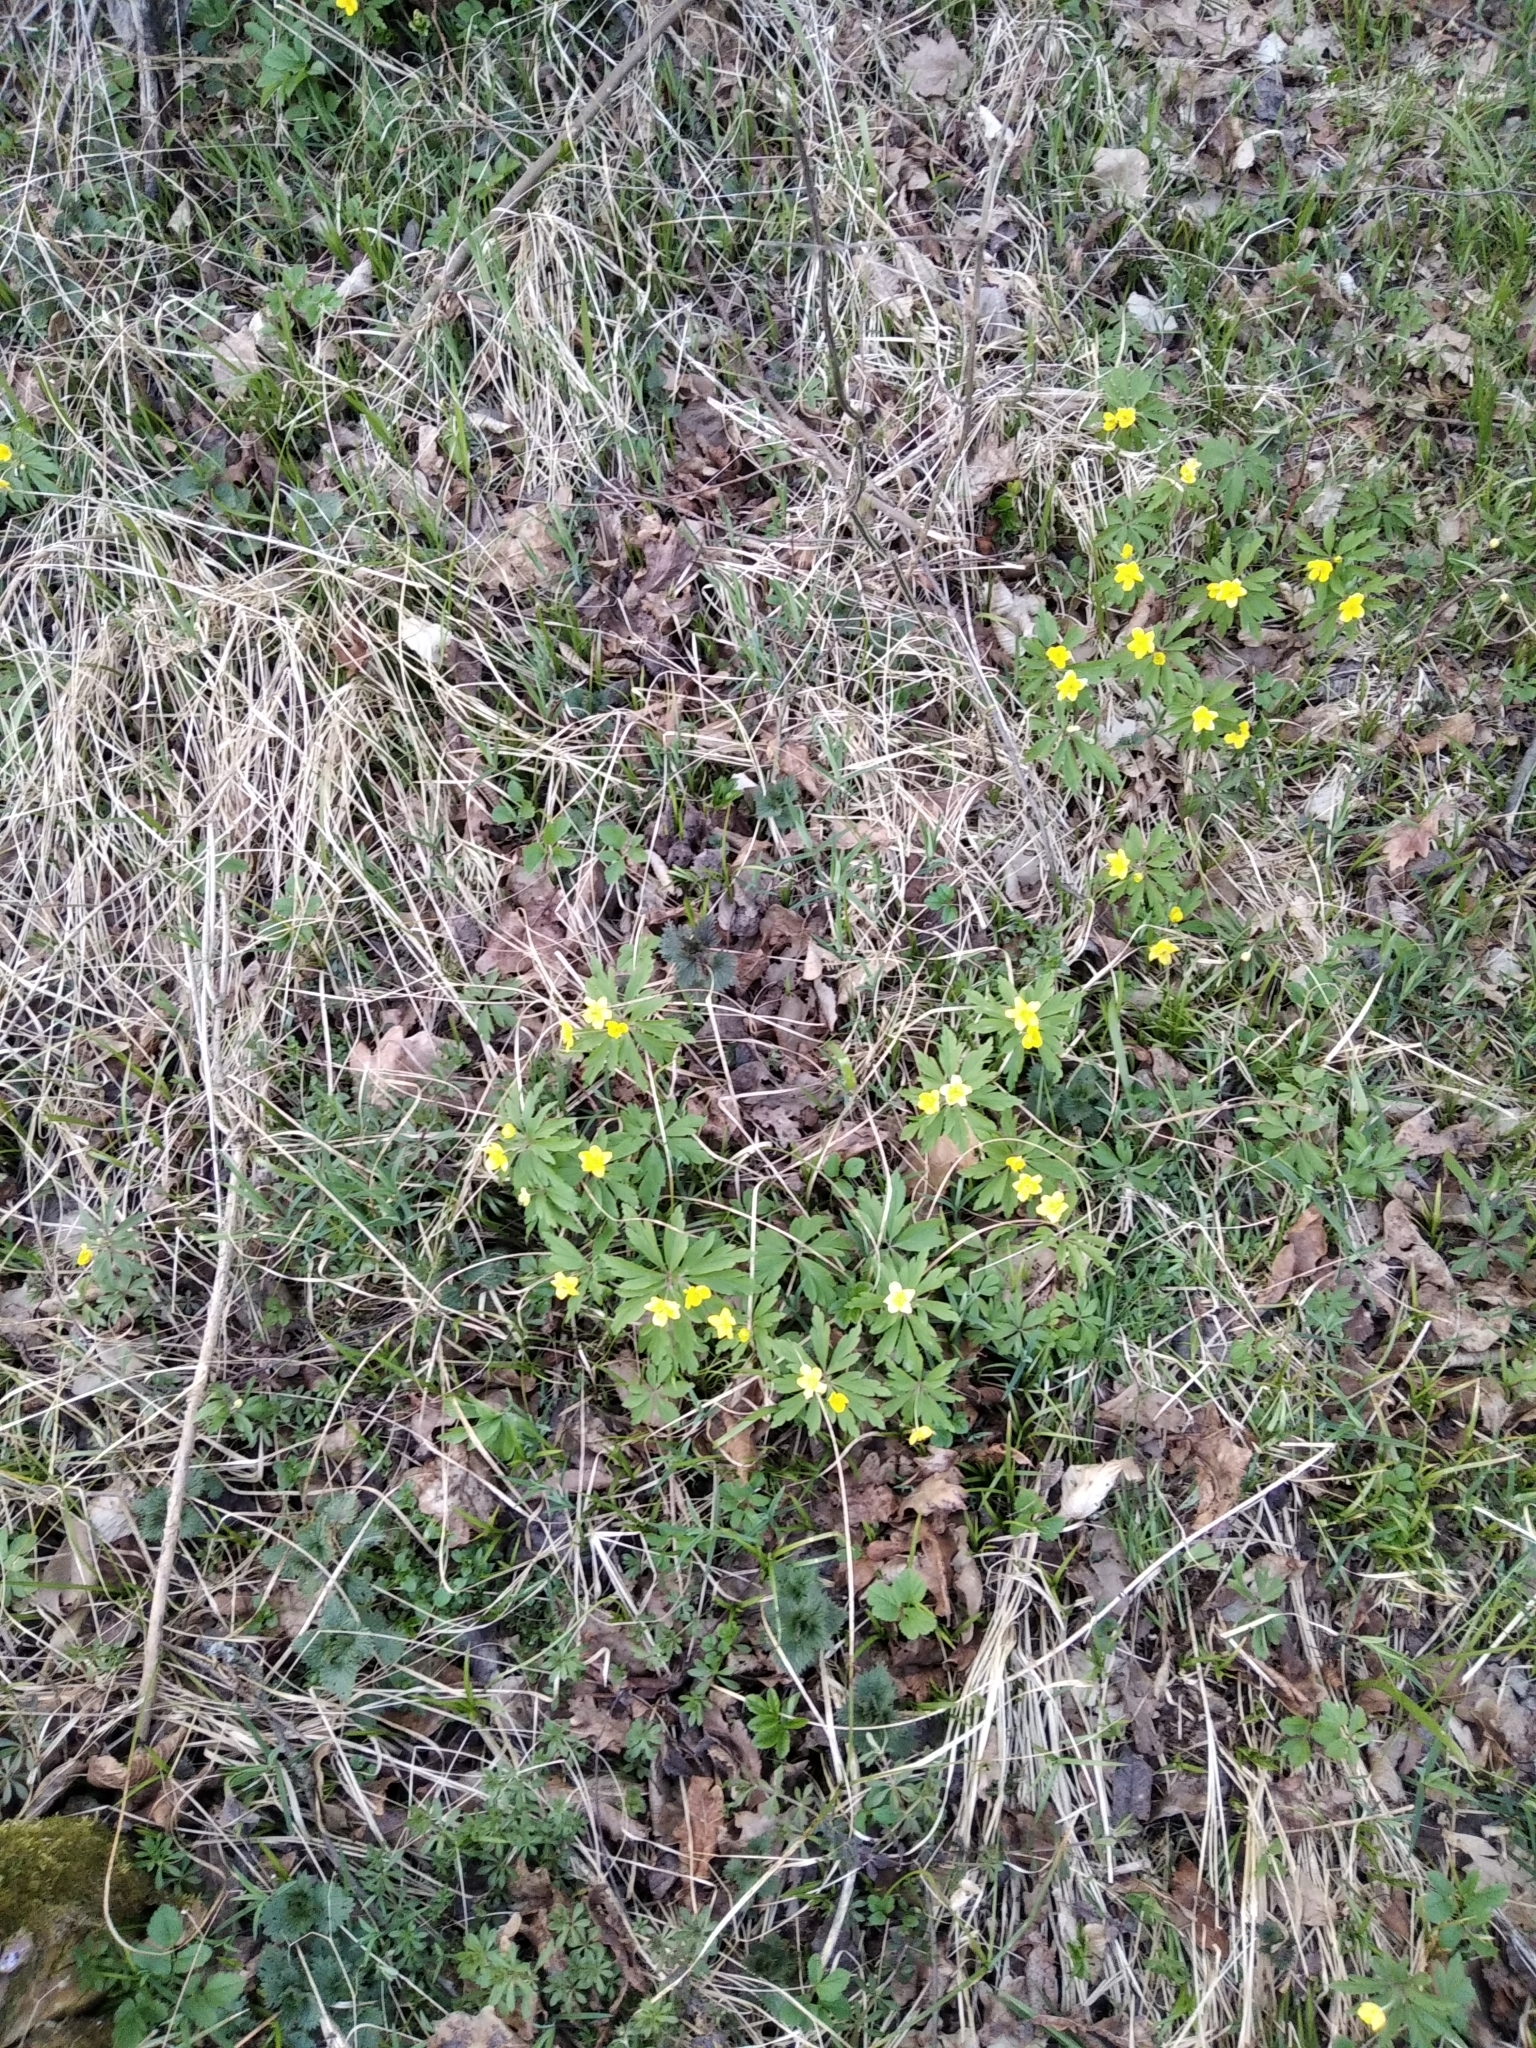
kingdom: Plantae
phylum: Tracheophyta
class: Magnoliopsida
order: Ranunculales
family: Ranunculaceae
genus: Anemone
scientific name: Anemone ranunculoides
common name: Yellow anemone
